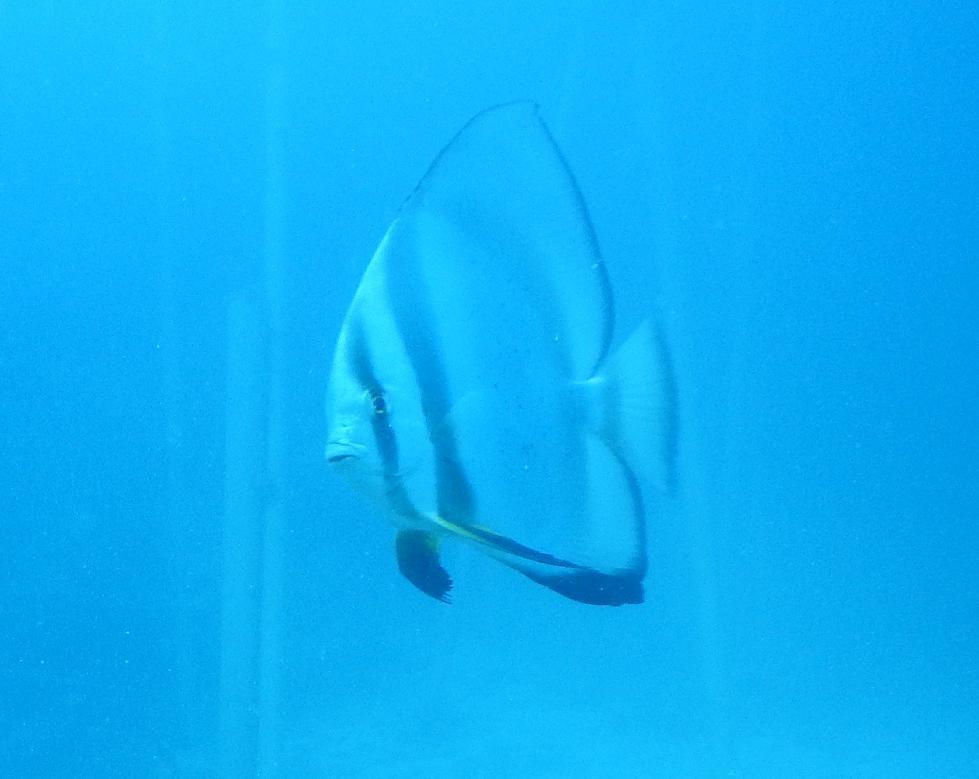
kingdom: Animalia
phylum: Chordata
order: Perciformes
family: Ephippidae
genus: Platax
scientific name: Platax orbicularis
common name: Batfish
